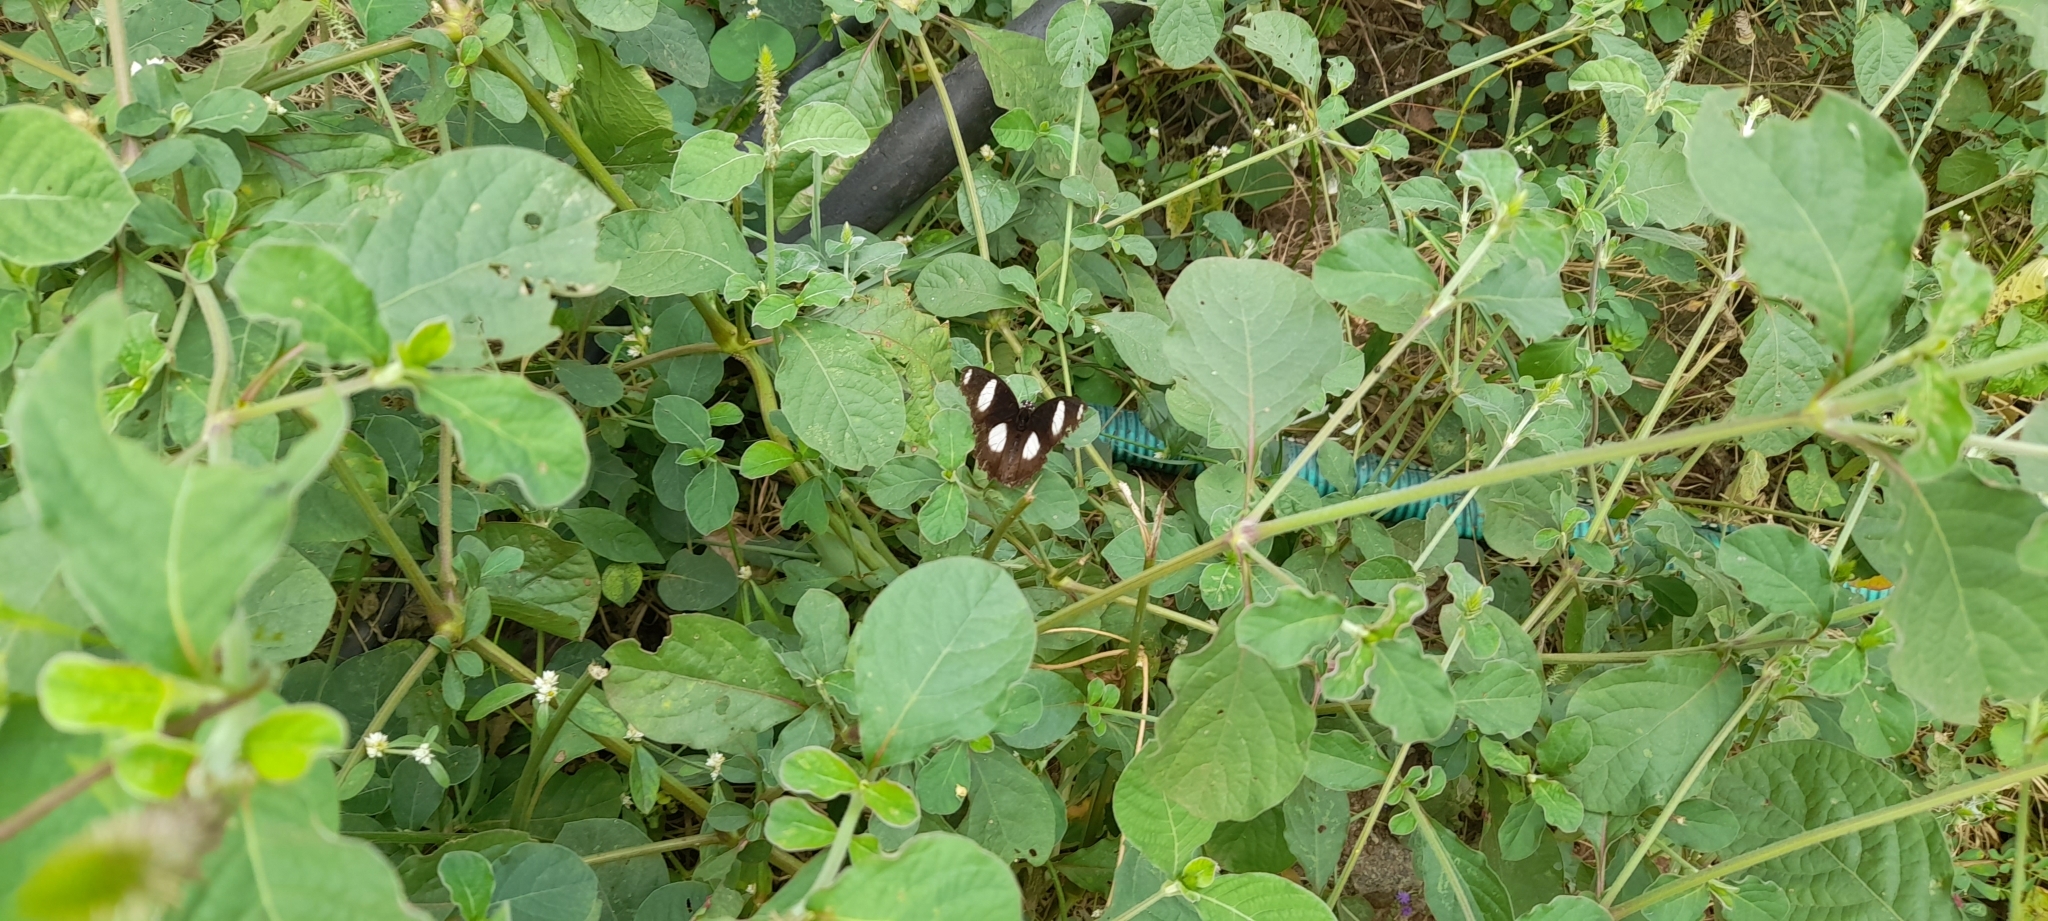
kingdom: Animalia
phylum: Arthropoda
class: Insecta
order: Lepidoptera
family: Nymphalidae
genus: Hypolimnas
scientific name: Hypolimnas misippus
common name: False plain tiger
